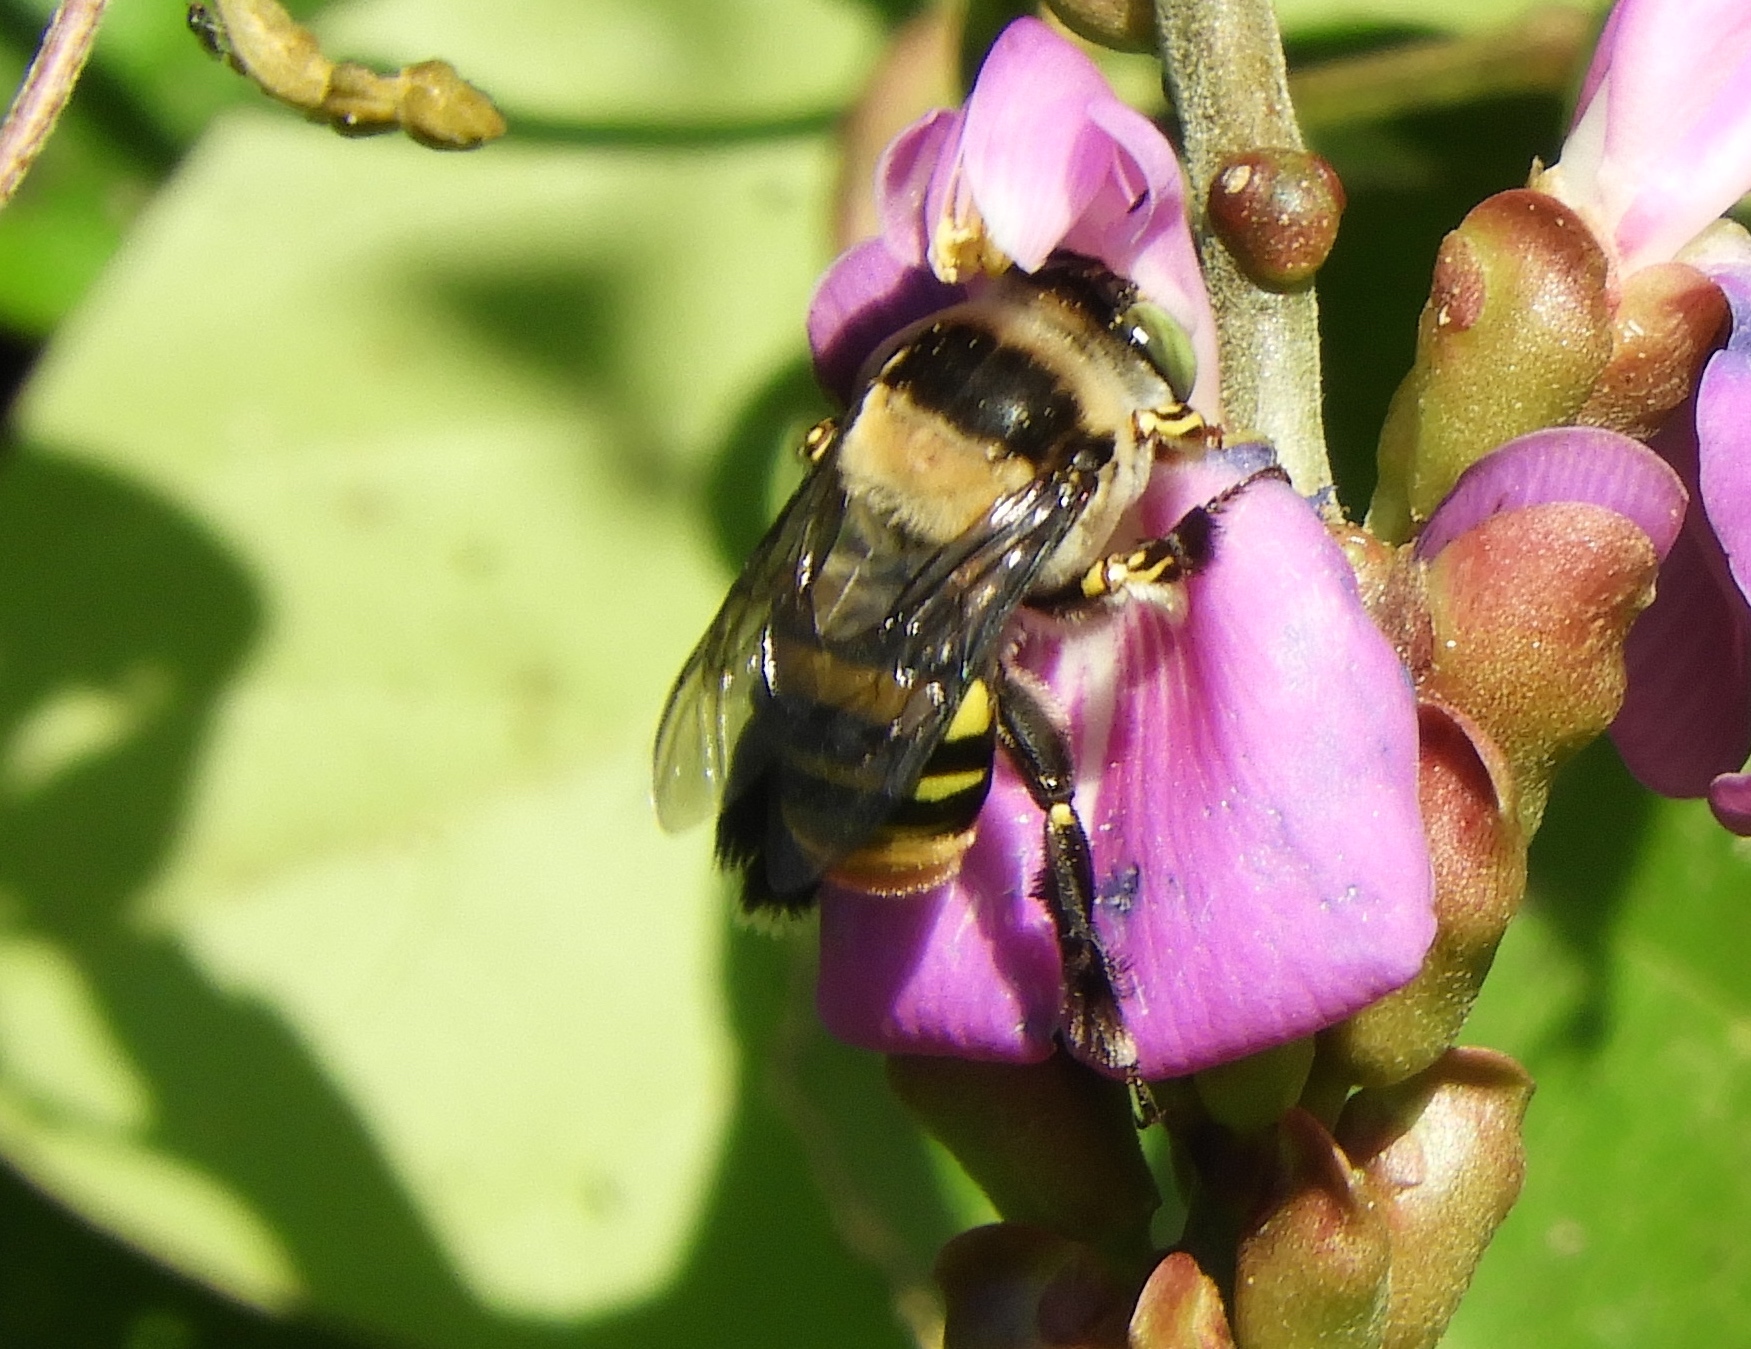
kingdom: Animalia
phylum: Arthropoda
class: Insecta
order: Hymenoptera
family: Apidae
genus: Centris
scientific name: Centris
